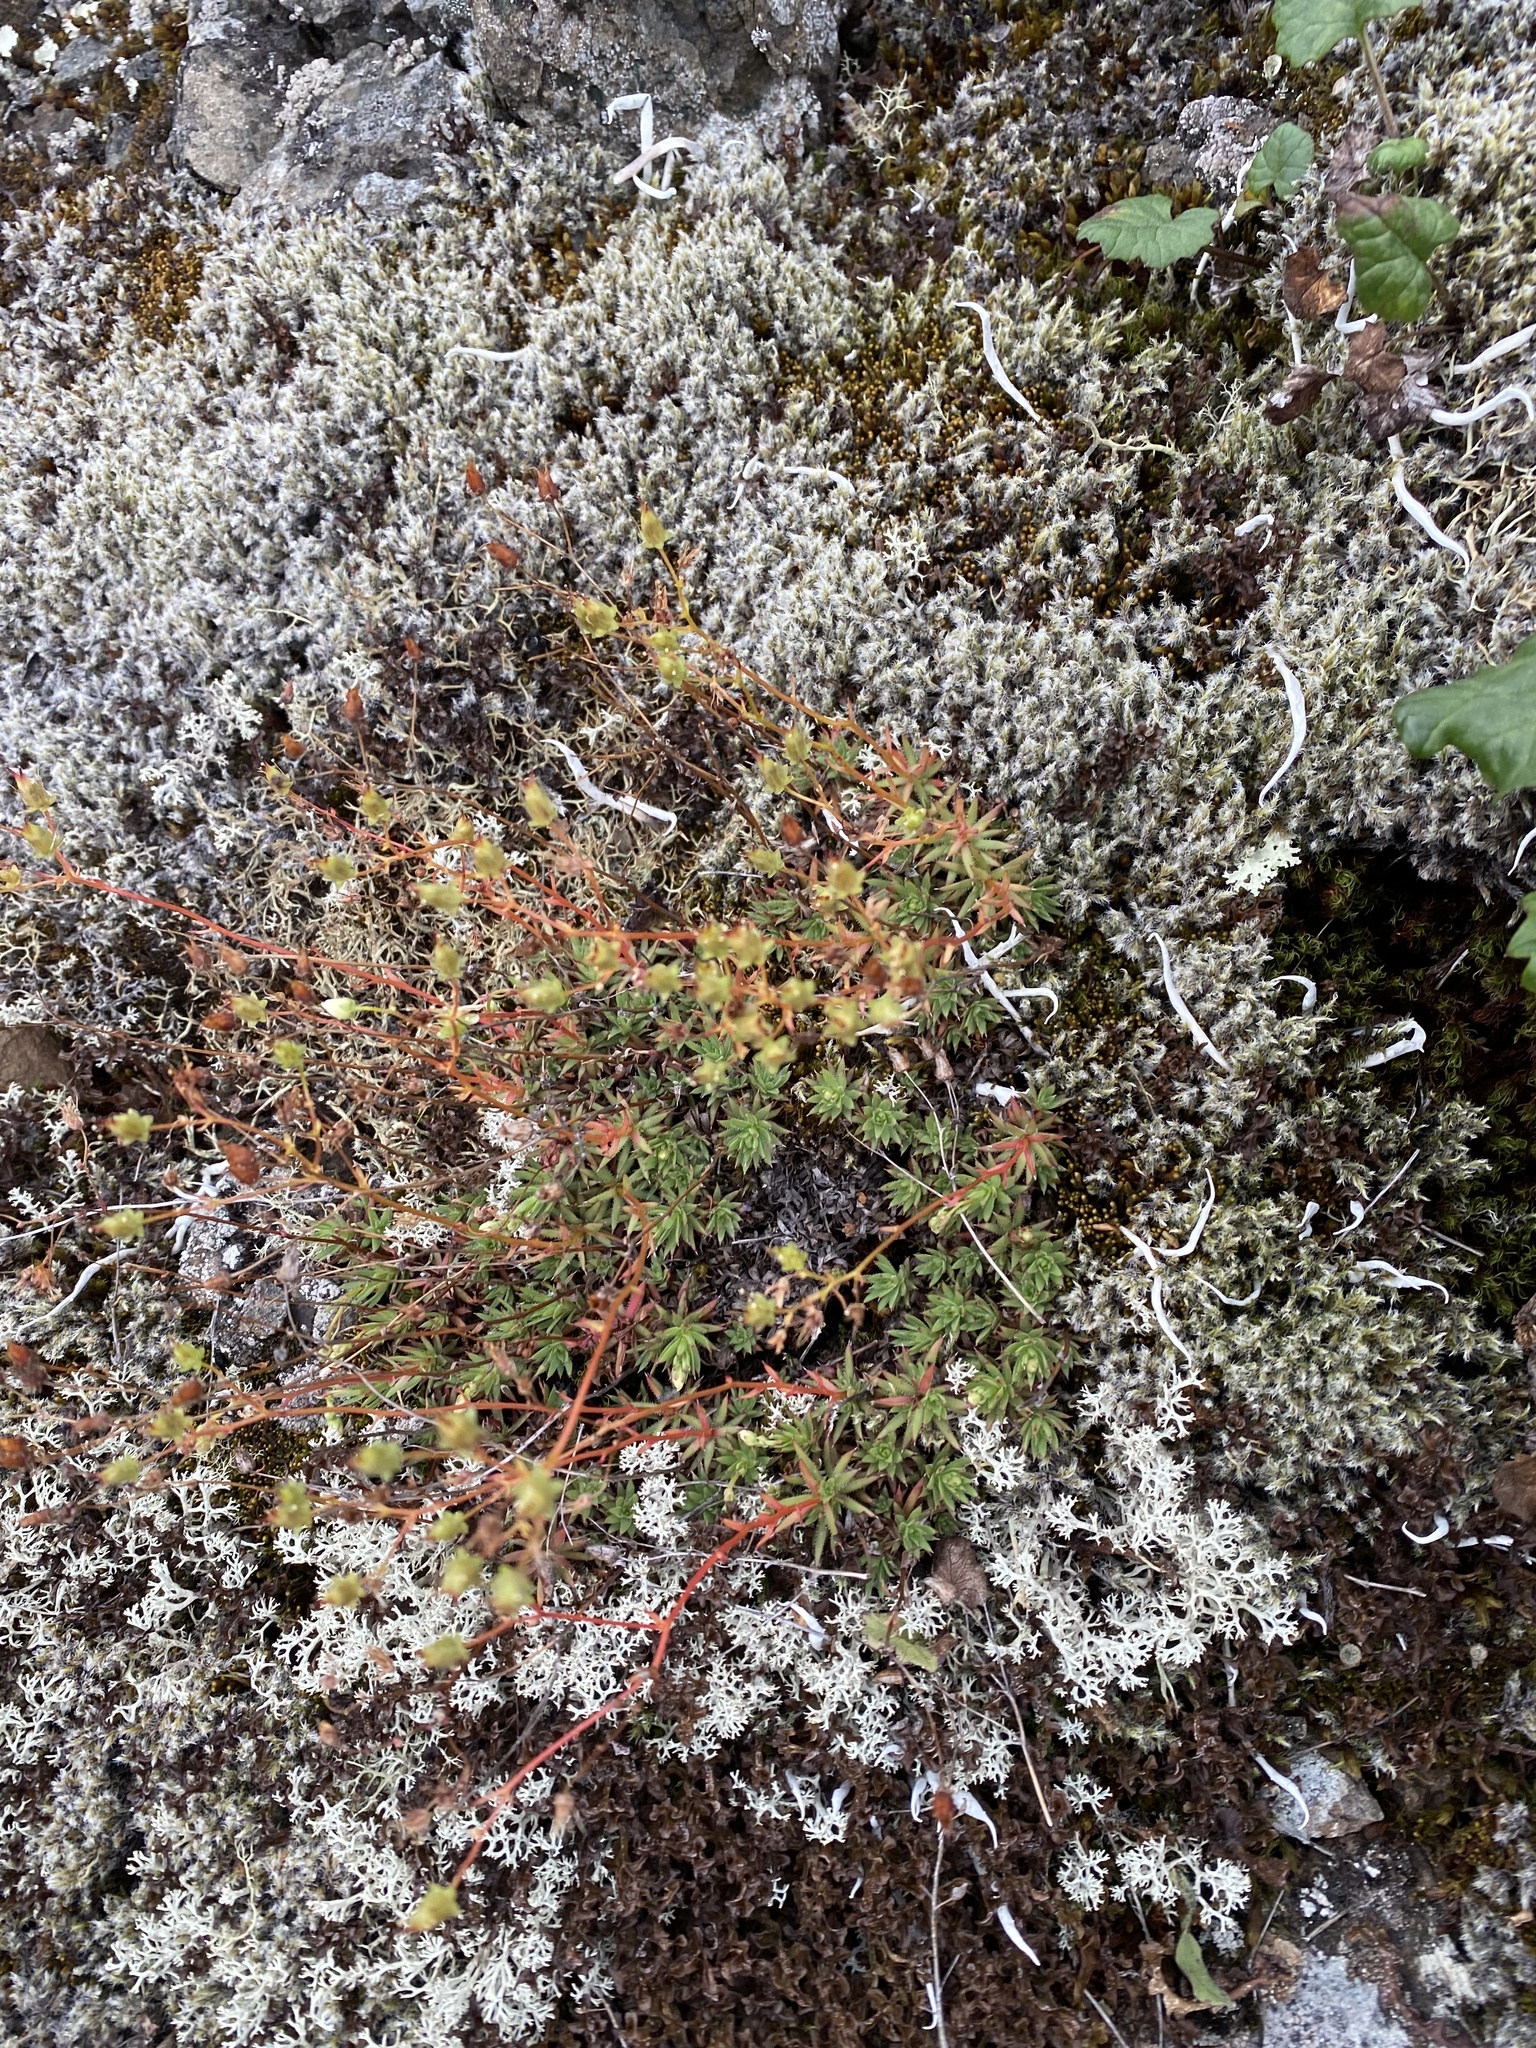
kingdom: Plantae
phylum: Tracheophyta
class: Magnoliopsida
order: Saxifragales
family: Saxifragaceae
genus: Saxifraga
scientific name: Saxifraga
